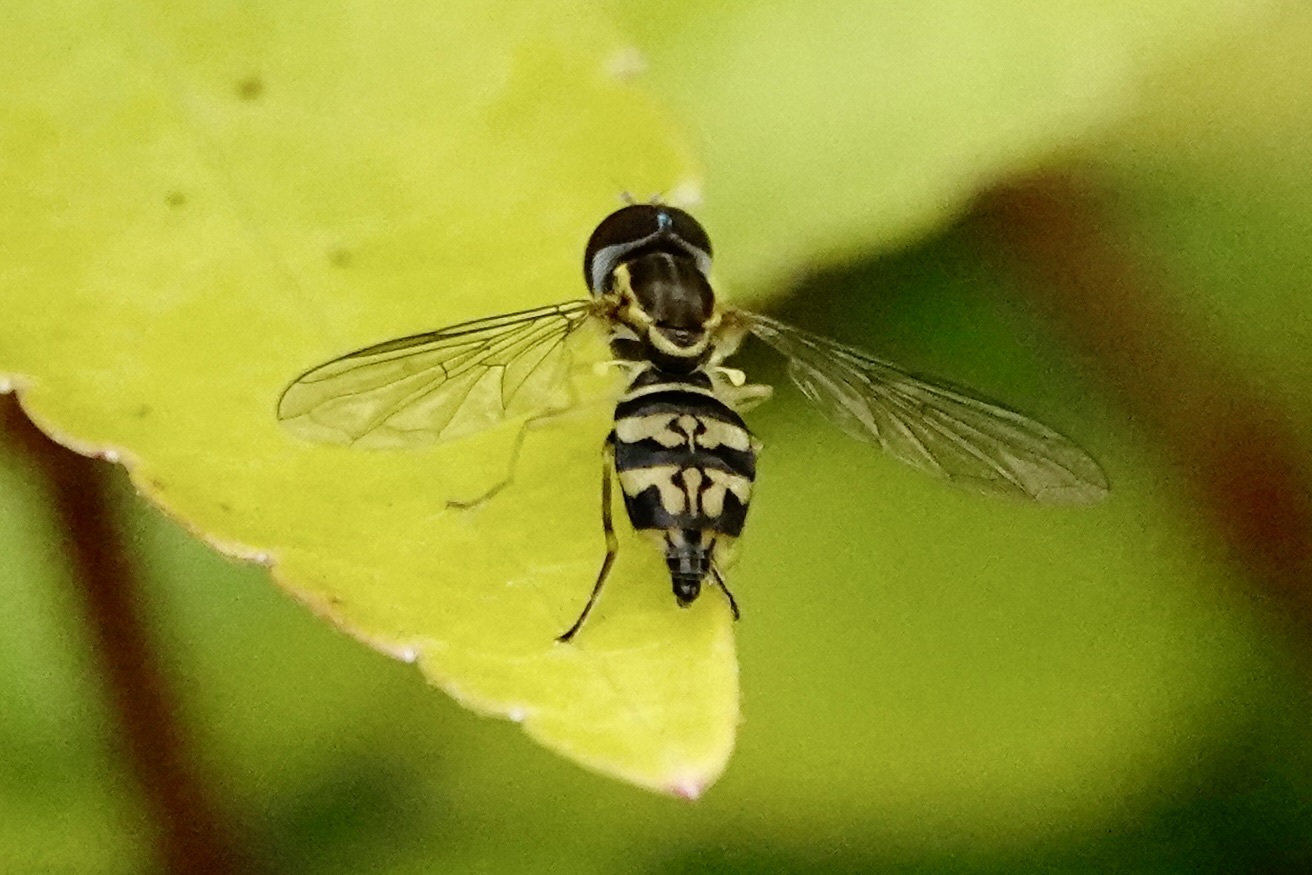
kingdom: Animalia
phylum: Arthropoda
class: Insecta
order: Diptera
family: Syrphidae
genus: Toxomerus
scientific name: Toxomerus geminatus
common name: Eastern calligrapher
